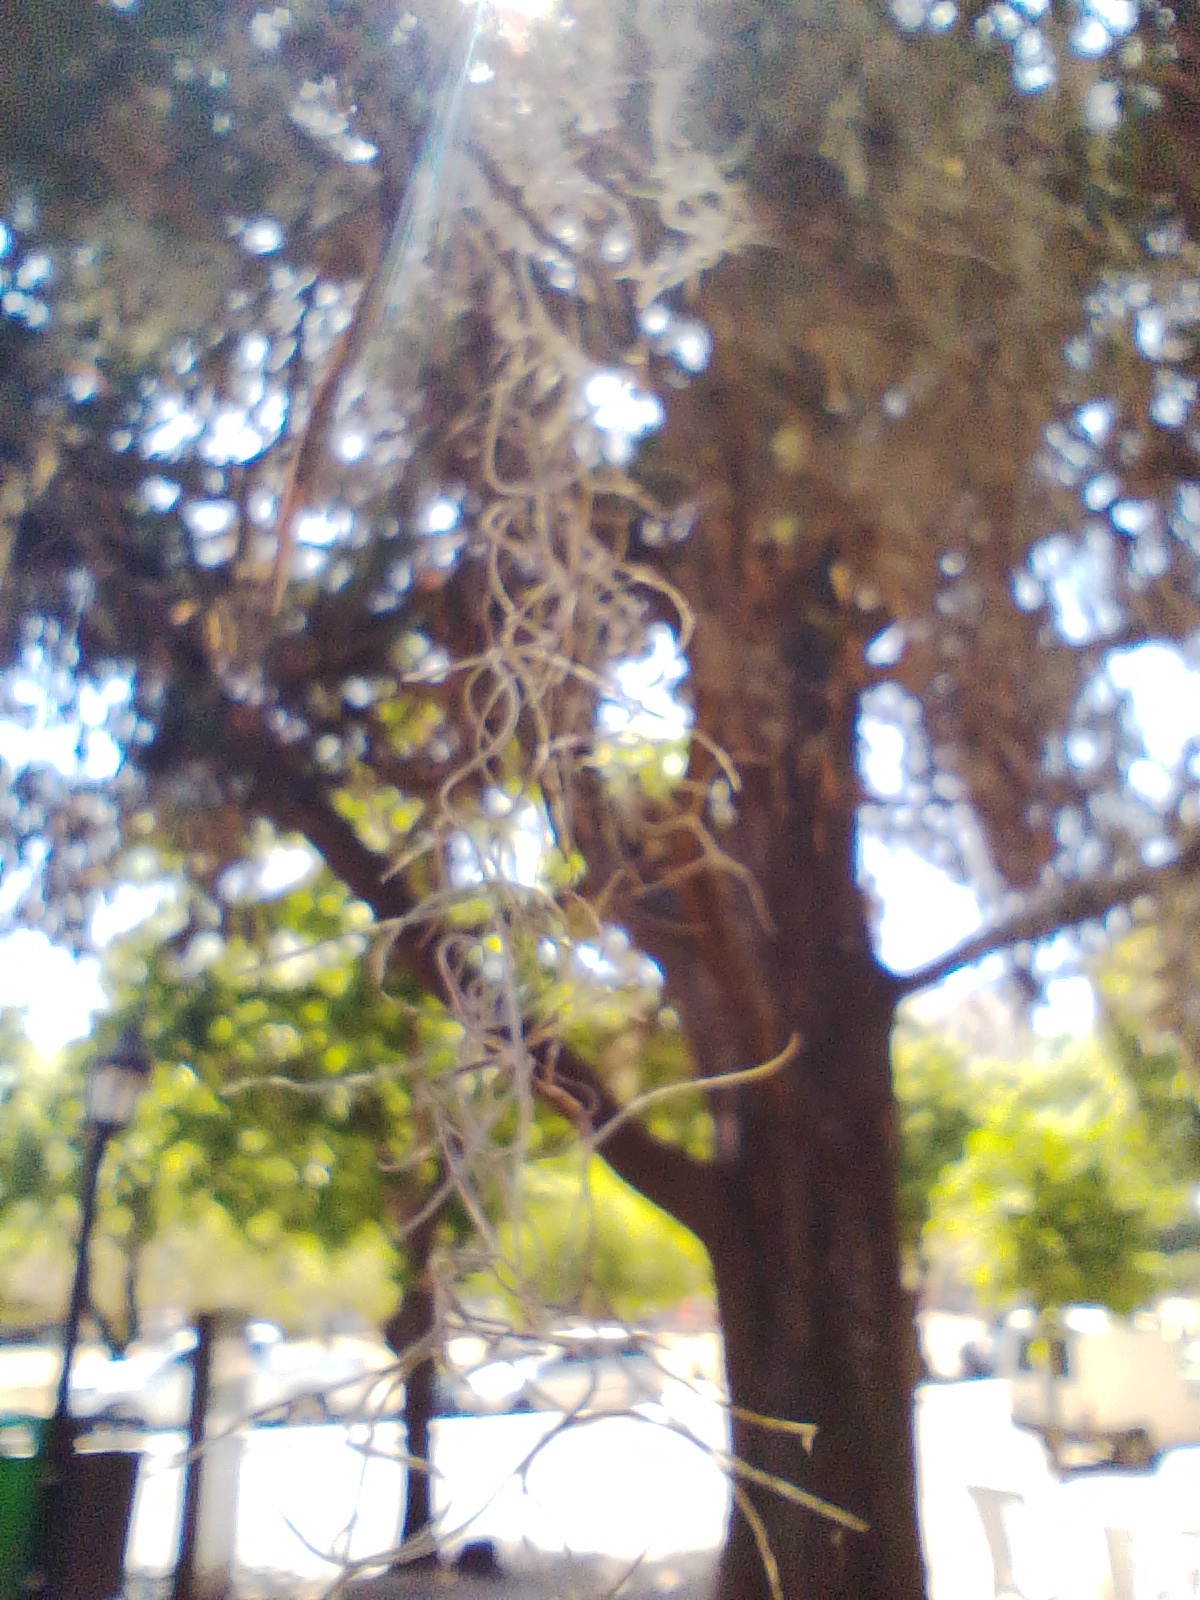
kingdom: Plantae
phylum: Tracheophyta
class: Liliopsida
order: Poales
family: Bromeliaceae
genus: Tillandsia
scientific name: Tillandsia usneoides
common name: Spanish moss
